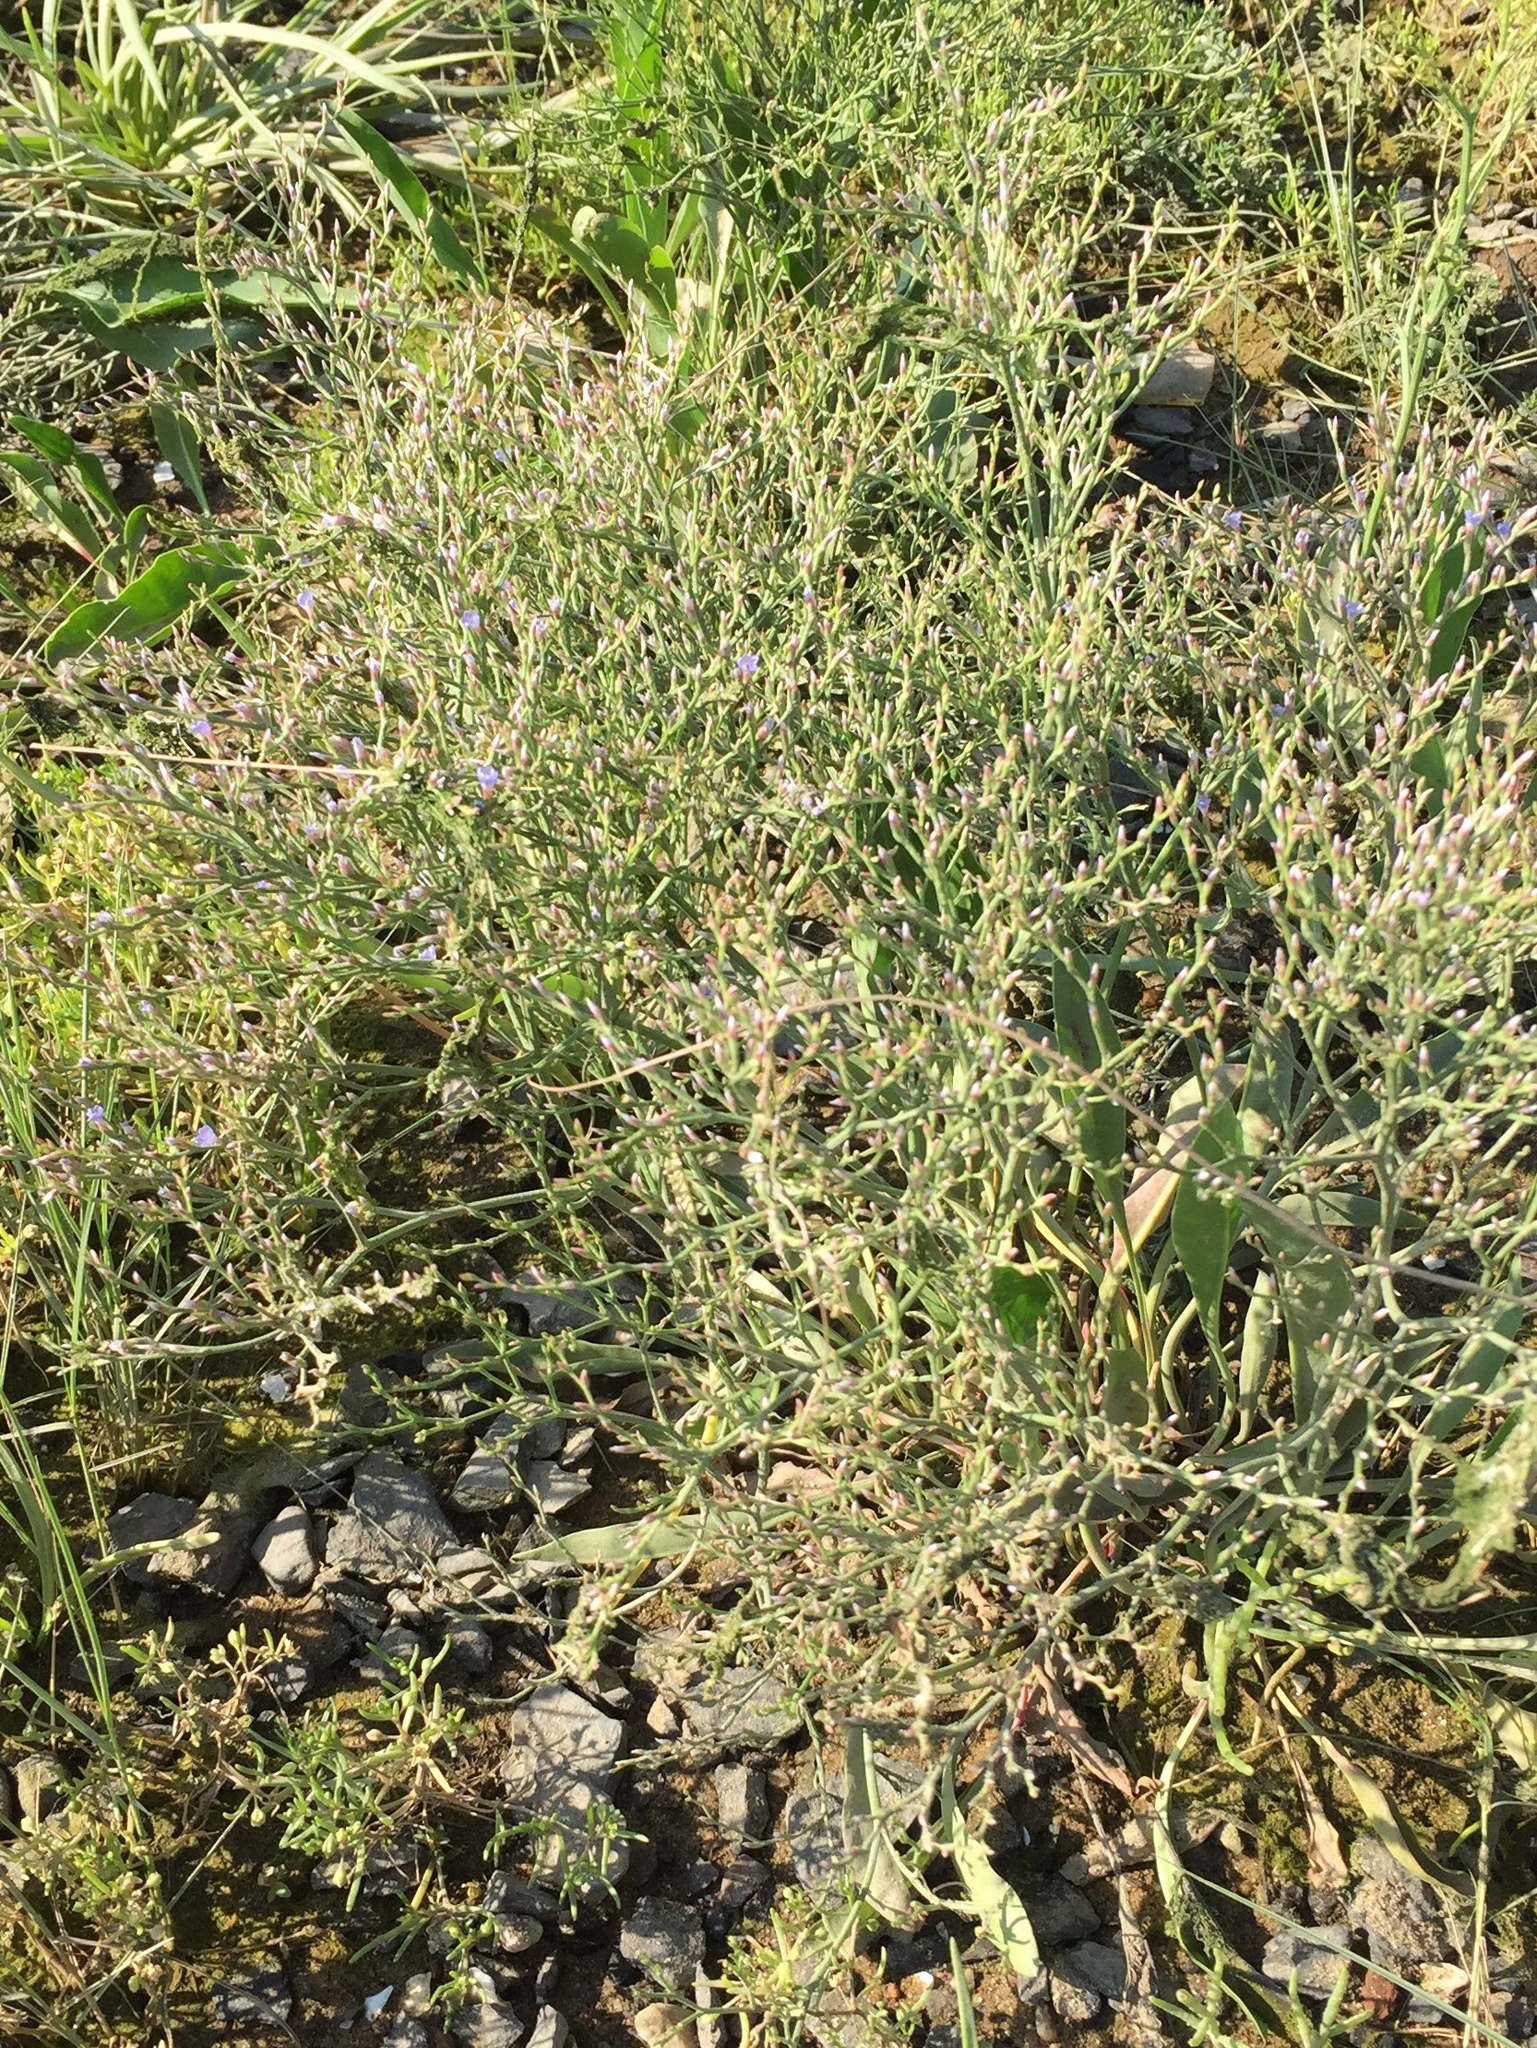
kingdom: Plantae
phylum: Tracheophyta
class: Magnoliopsida
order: Caryophyllales
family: Plumbaginaceae
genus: Limonium
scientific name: Limonium carolinianum
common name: Carolina sea lavender
